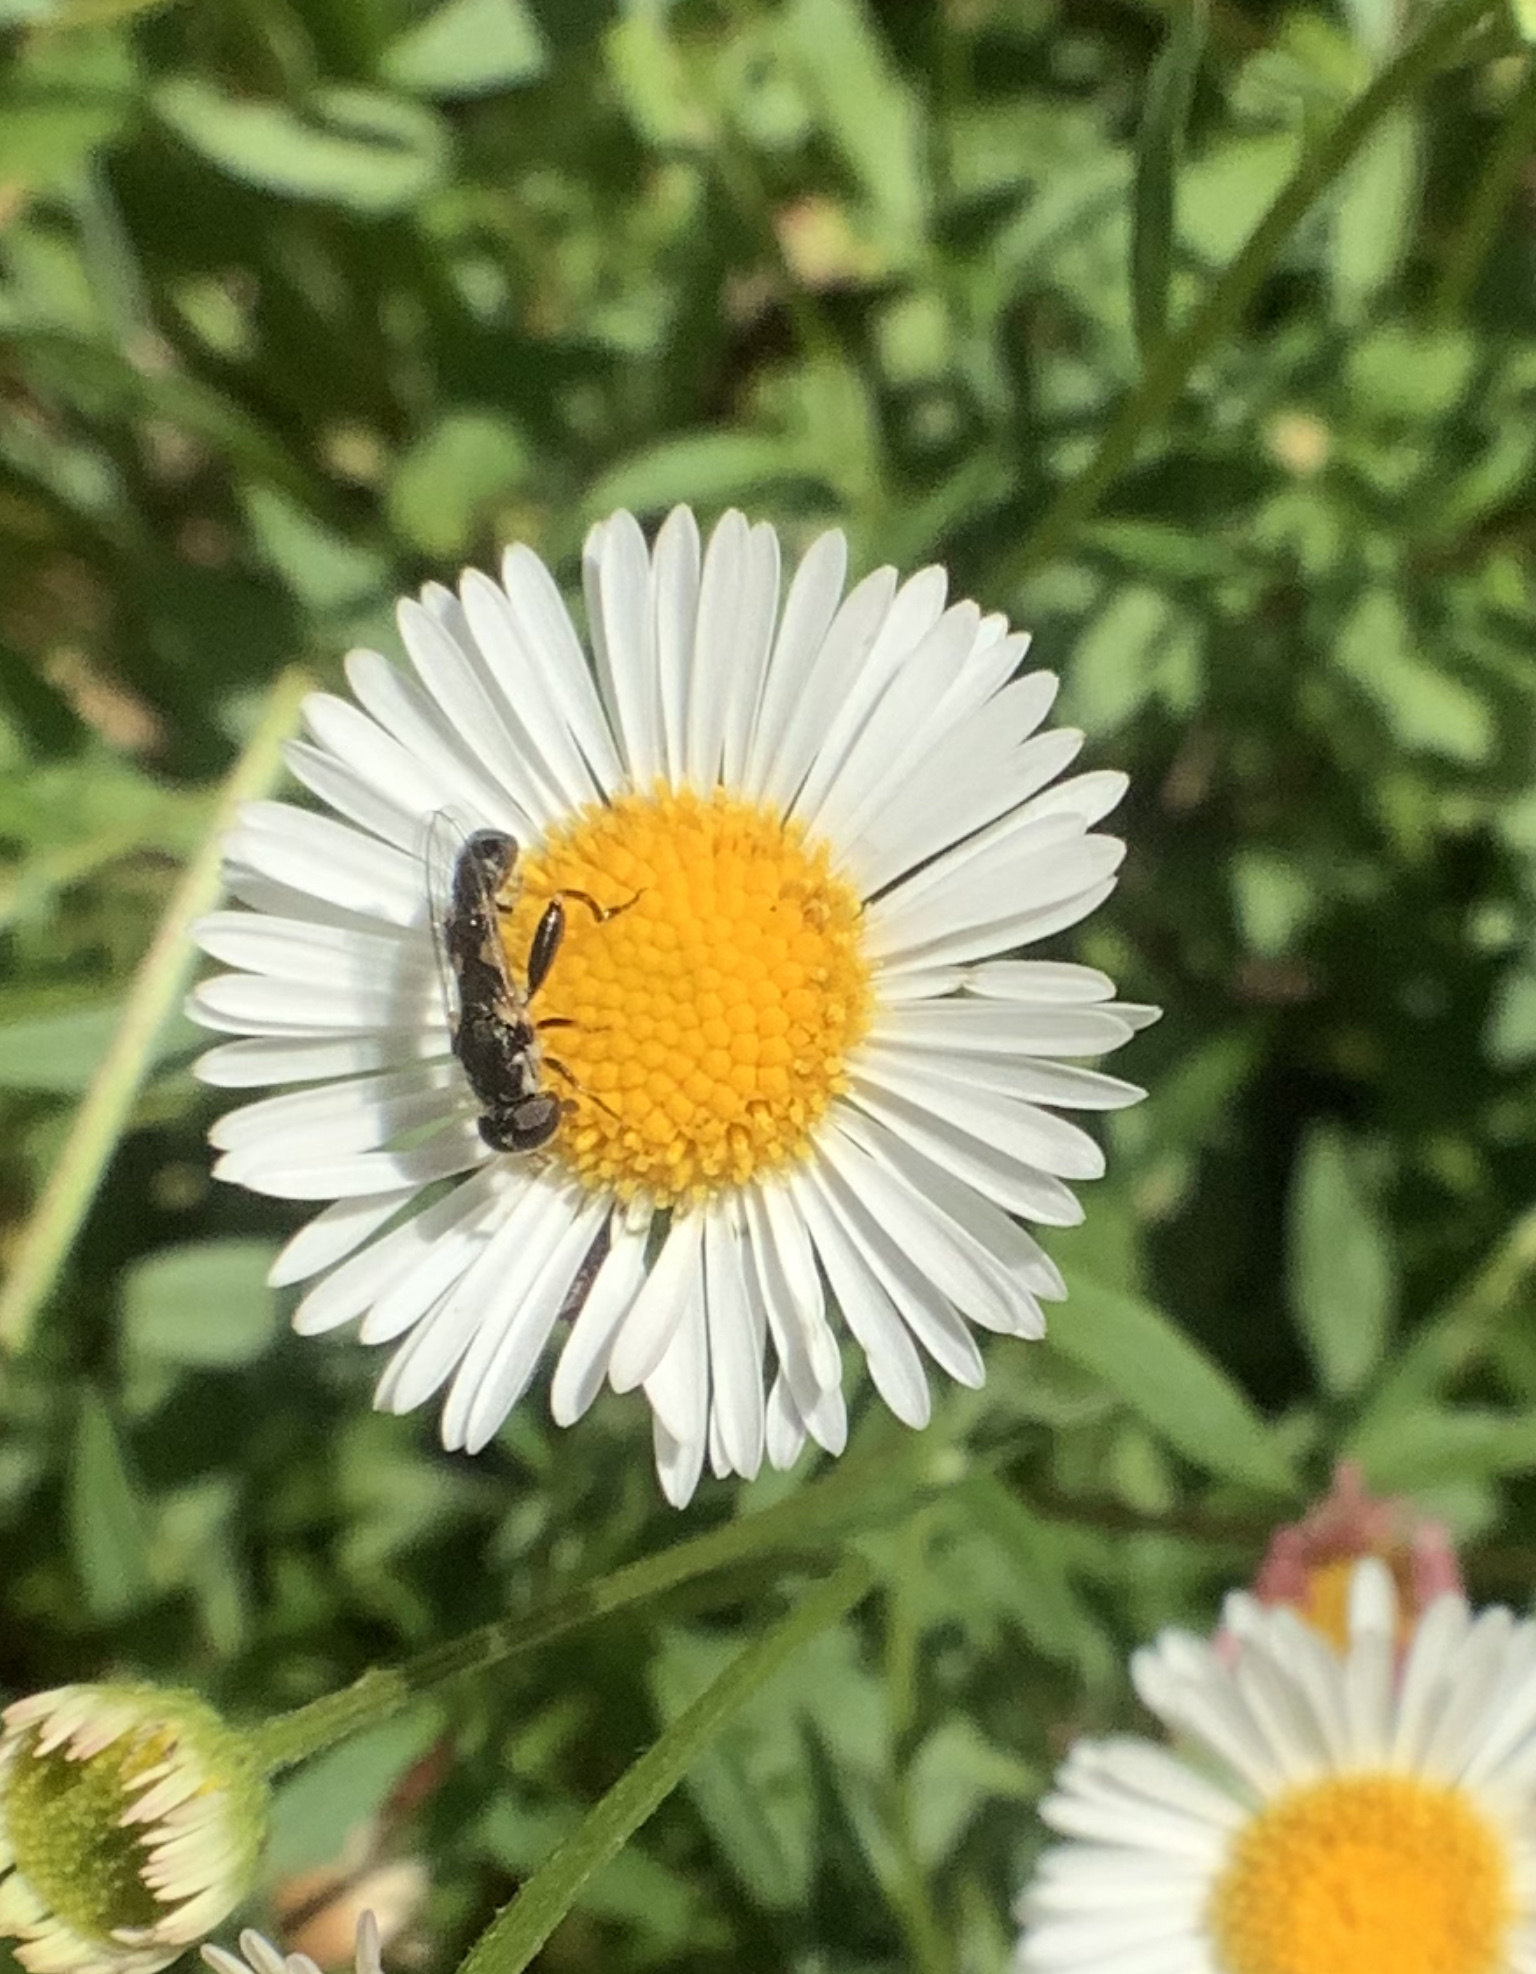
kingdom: Animalia
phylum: Arthropoda
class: Insecta
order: Diptera
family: Syrphidae
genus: Syritta
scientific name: Syritta pipiens
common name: Hover fly
